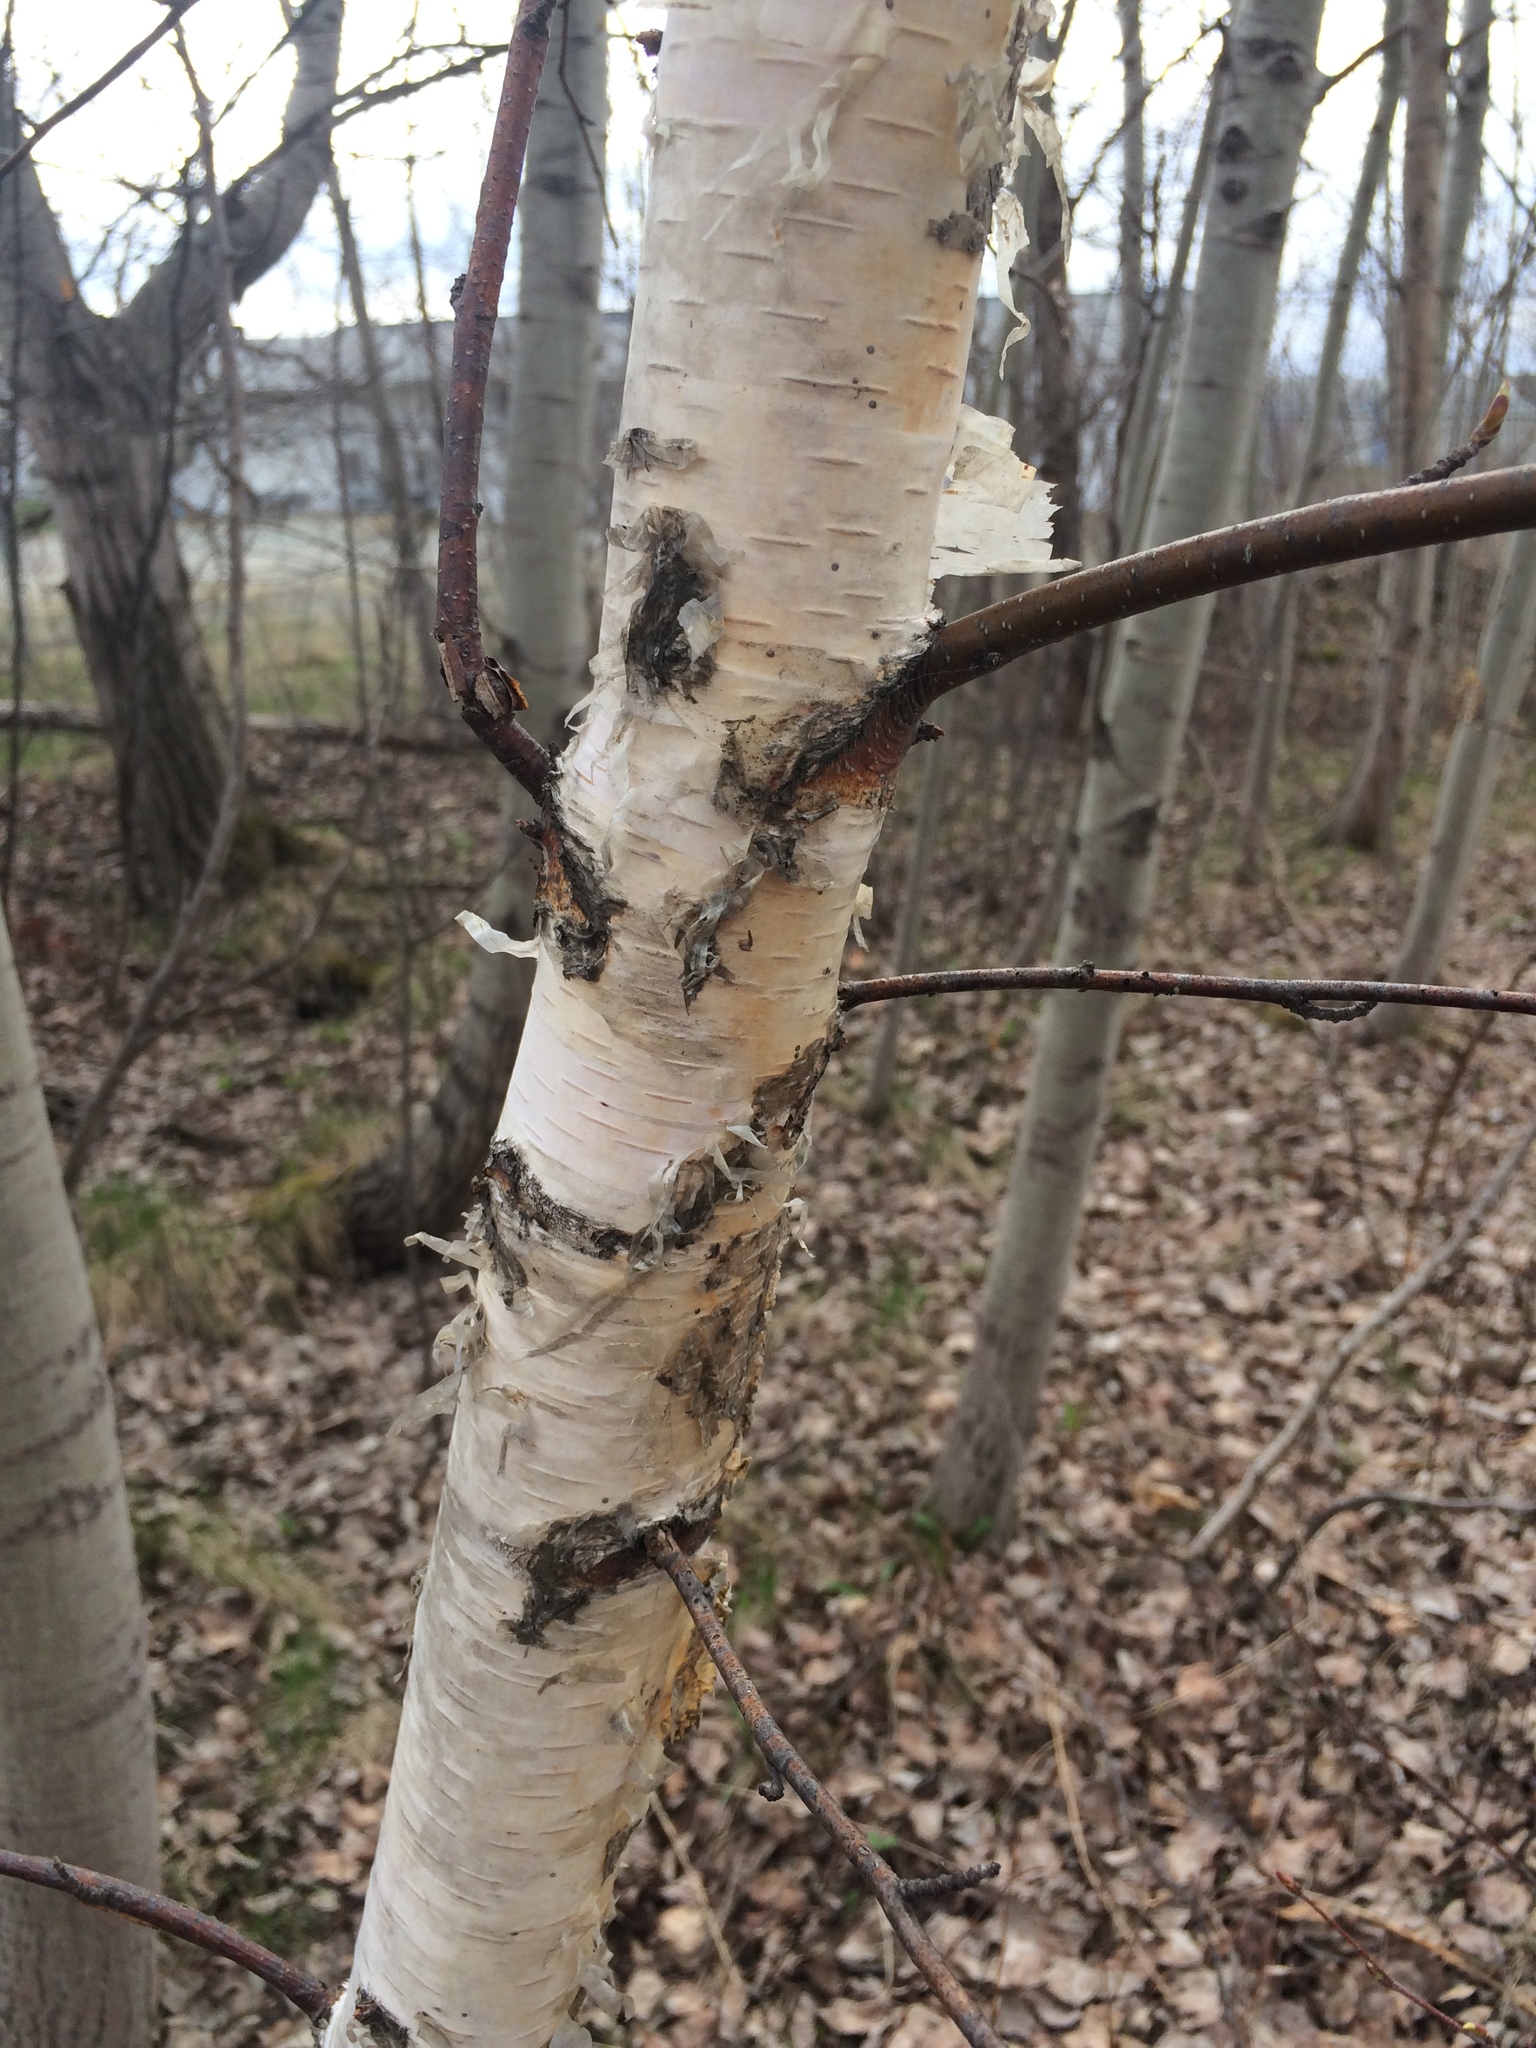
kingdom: Plantae
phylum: Tracheophyta
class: Magnoliopsida
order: Fagales
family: Betulaceae
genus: Betula
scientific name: Betula pendula
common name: Silver birch
